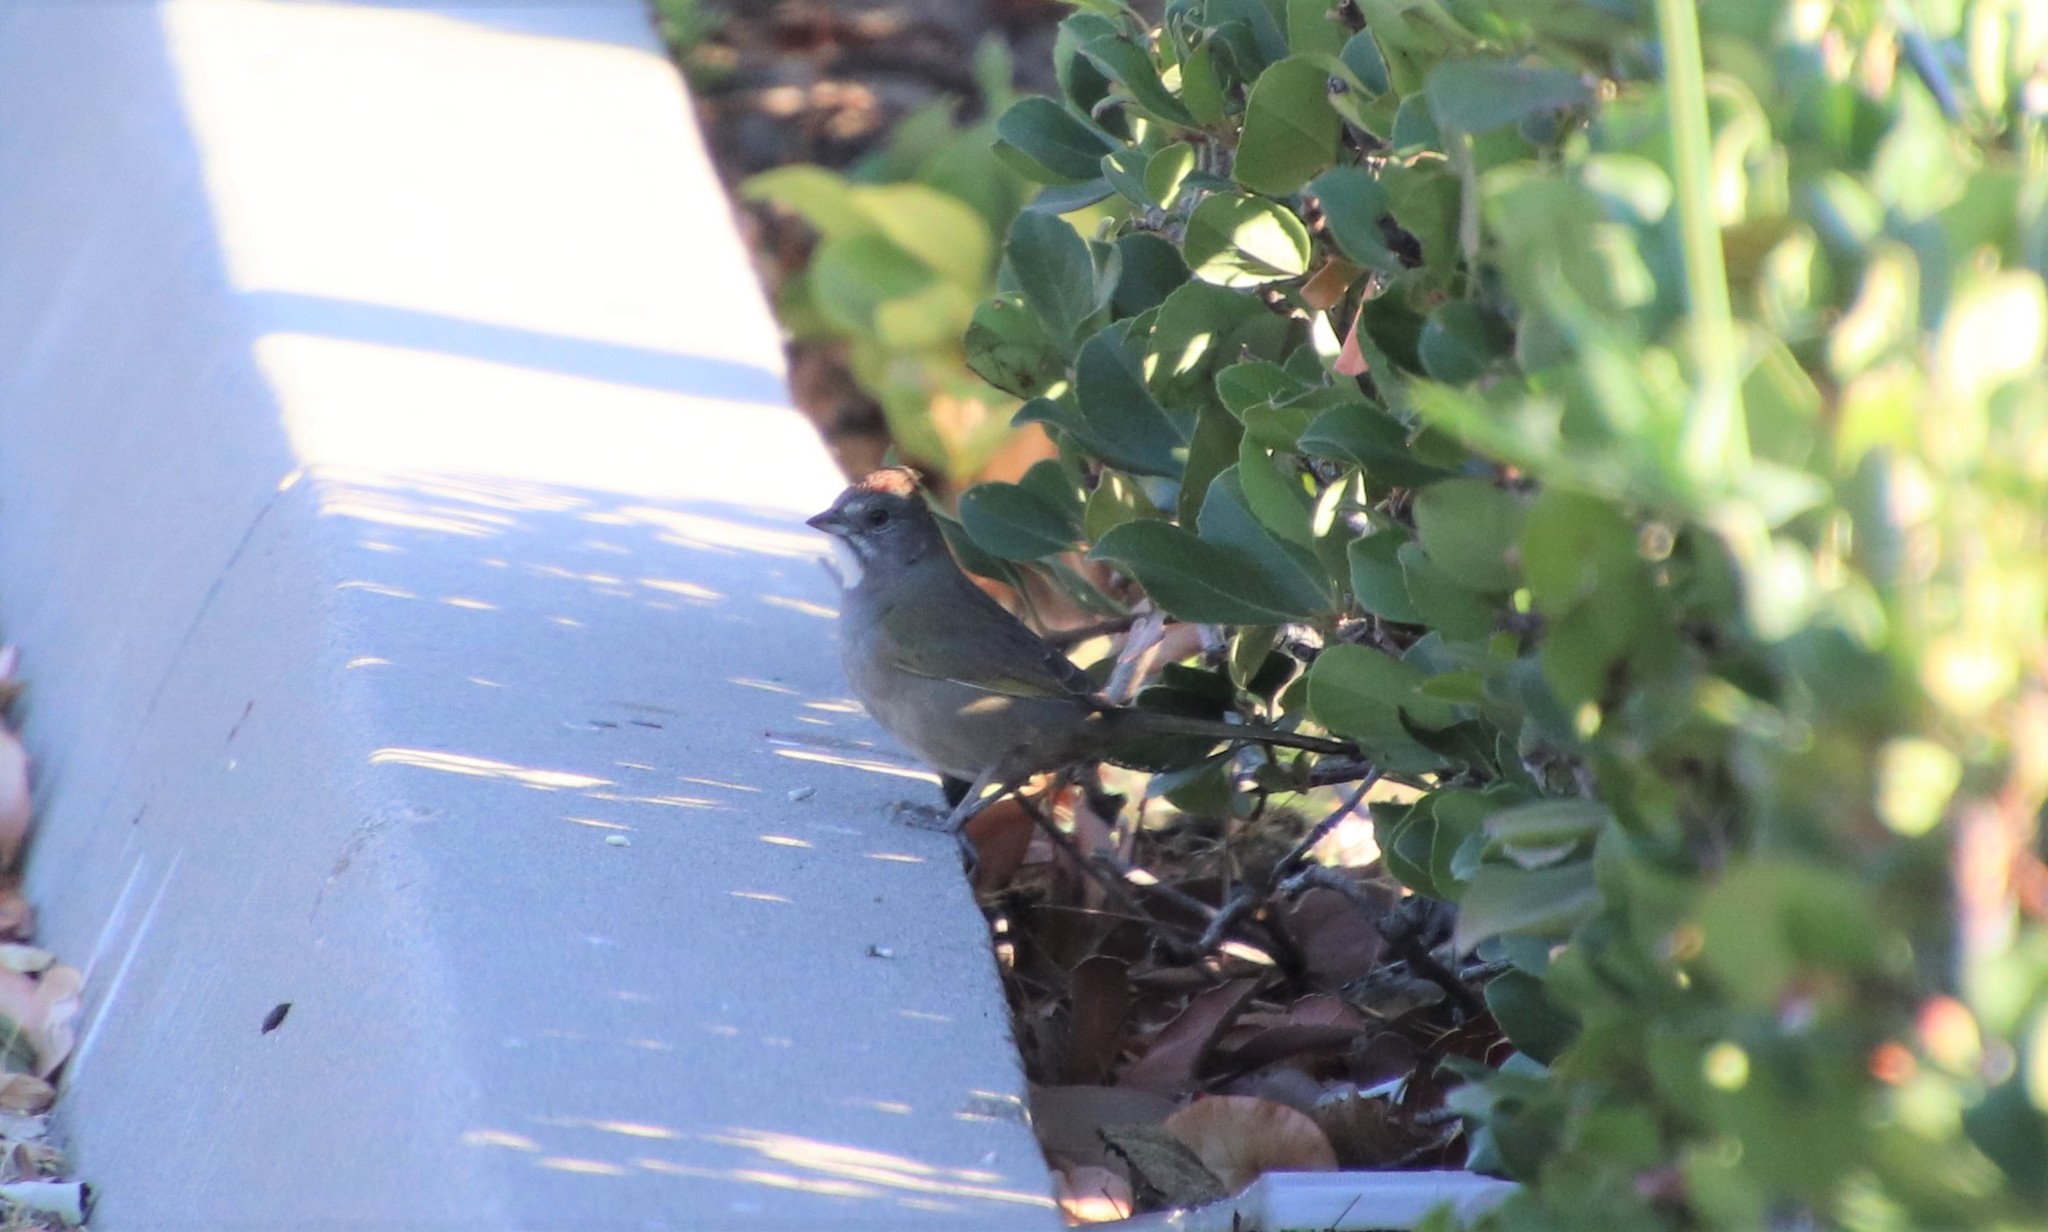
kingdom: Animalia
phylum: Chordata
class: Aves
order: Passeriformes
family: Passerellidae
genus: Pipilo
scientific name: Pipilo chlorurus
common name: Green-tailed towhee
